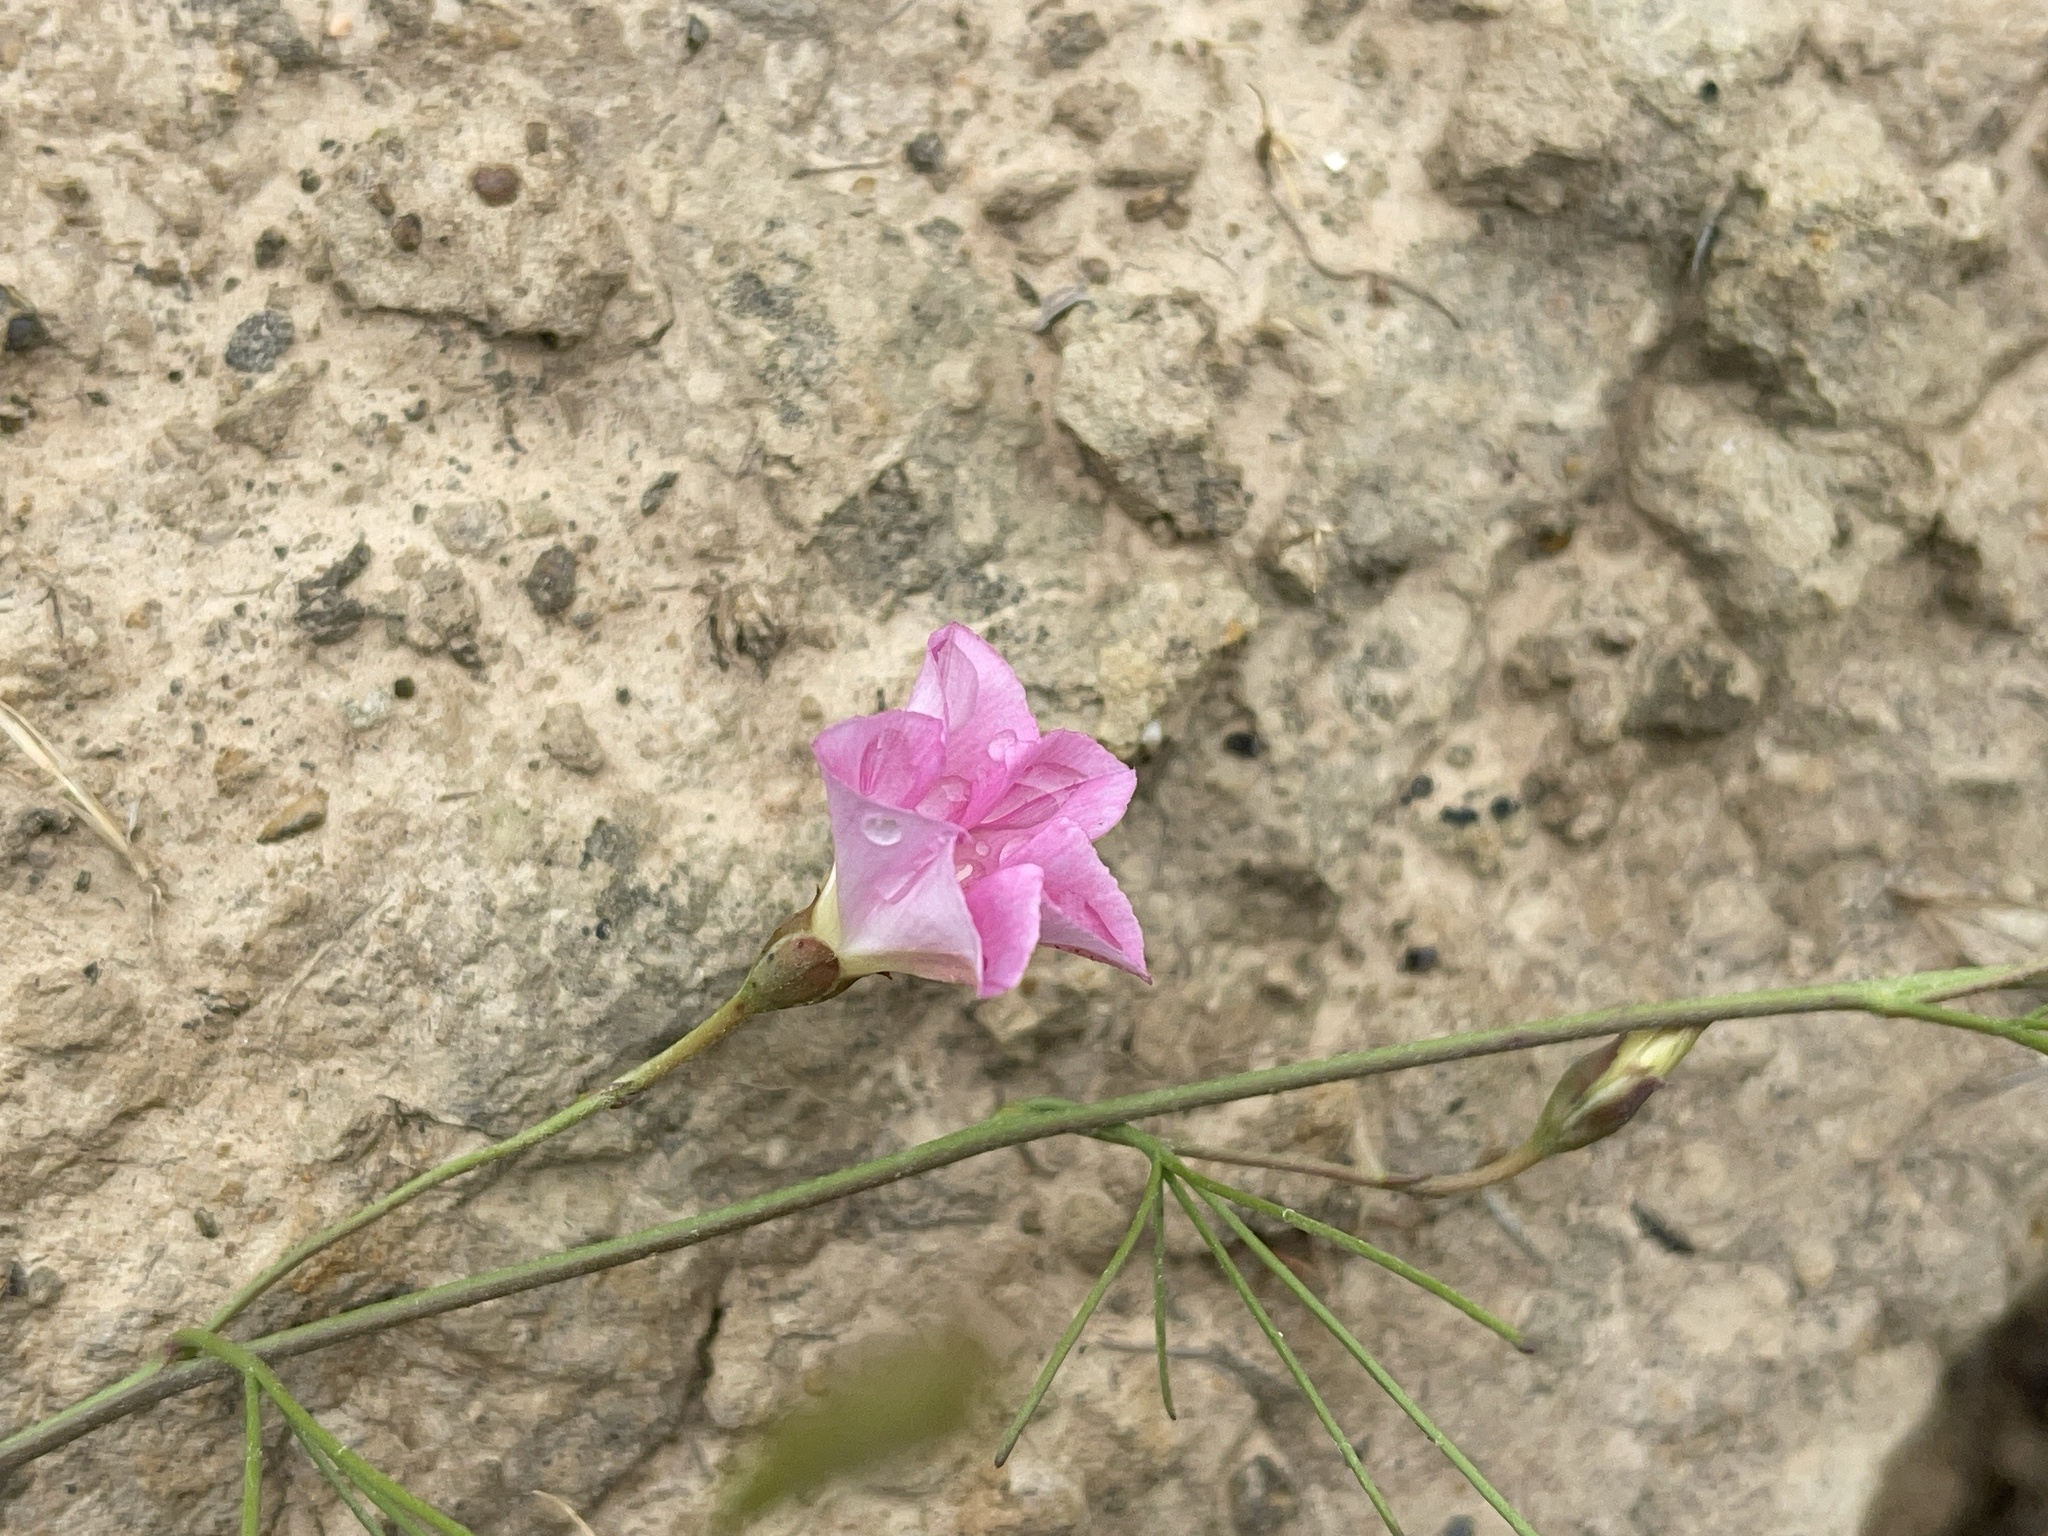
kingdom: Plantae
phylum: Tracheophyta
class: Magnoliopsida
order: Solanales
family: Convolvulaceae
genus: Convolvulus
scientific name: Convolvulus angustissimus
